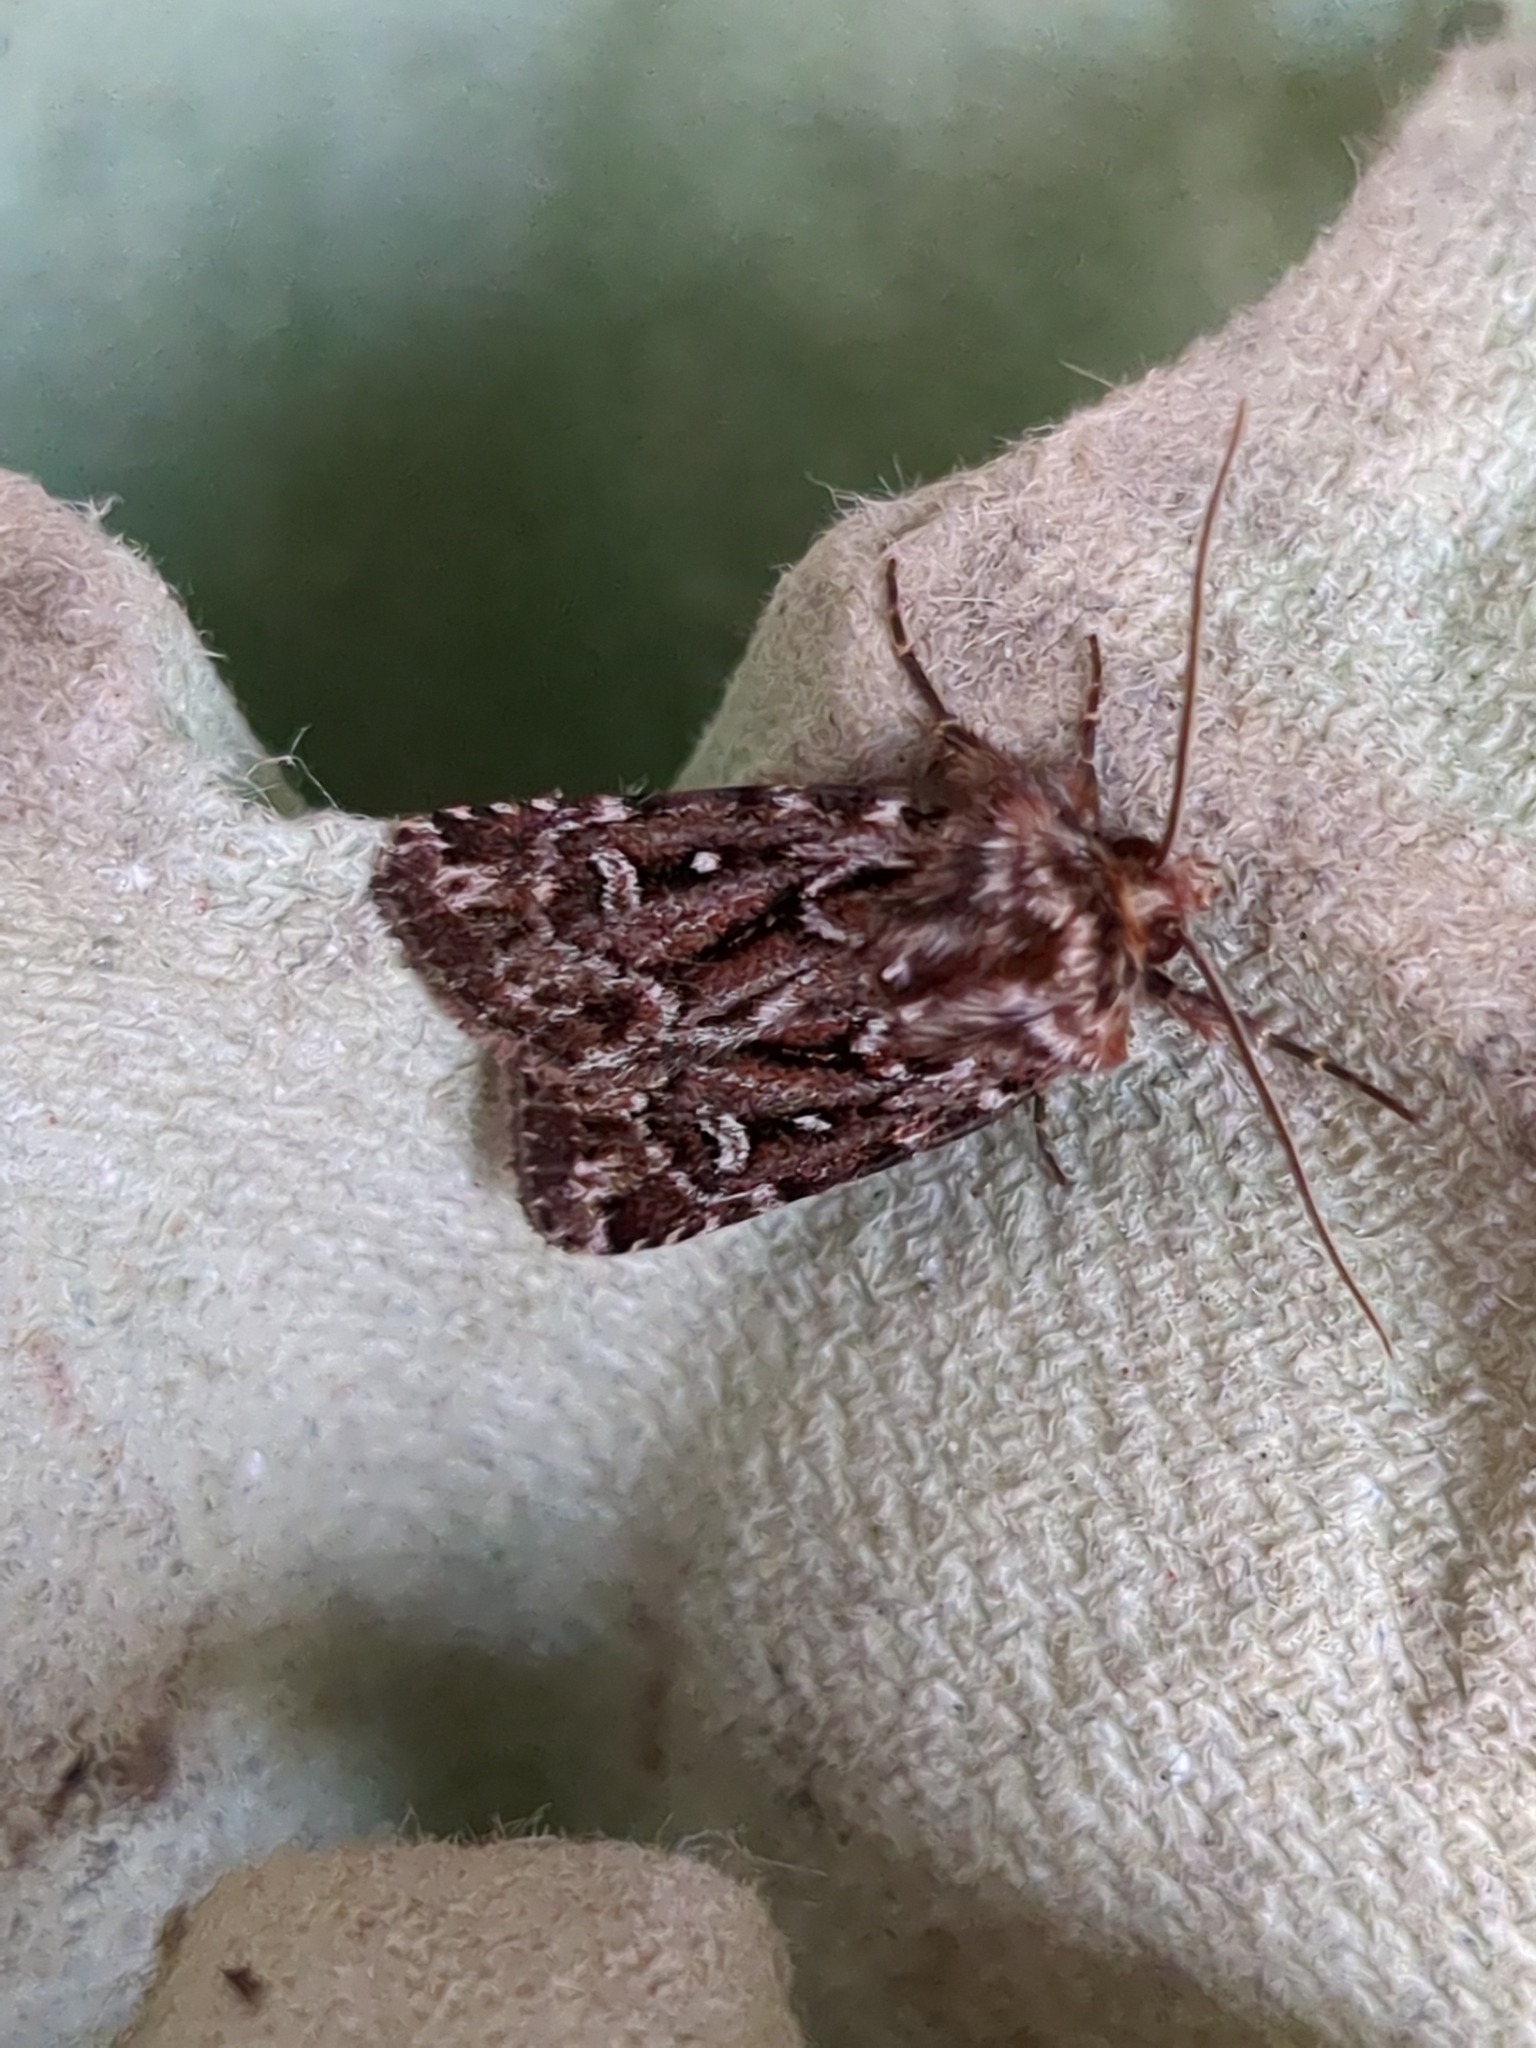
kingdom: Animalia
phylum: Arthropoda
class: Insecta
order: Lepidoptera
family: Noctuidae
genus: Lycophotia
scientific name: Lycophotia porphyrea
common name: True lover's knot
